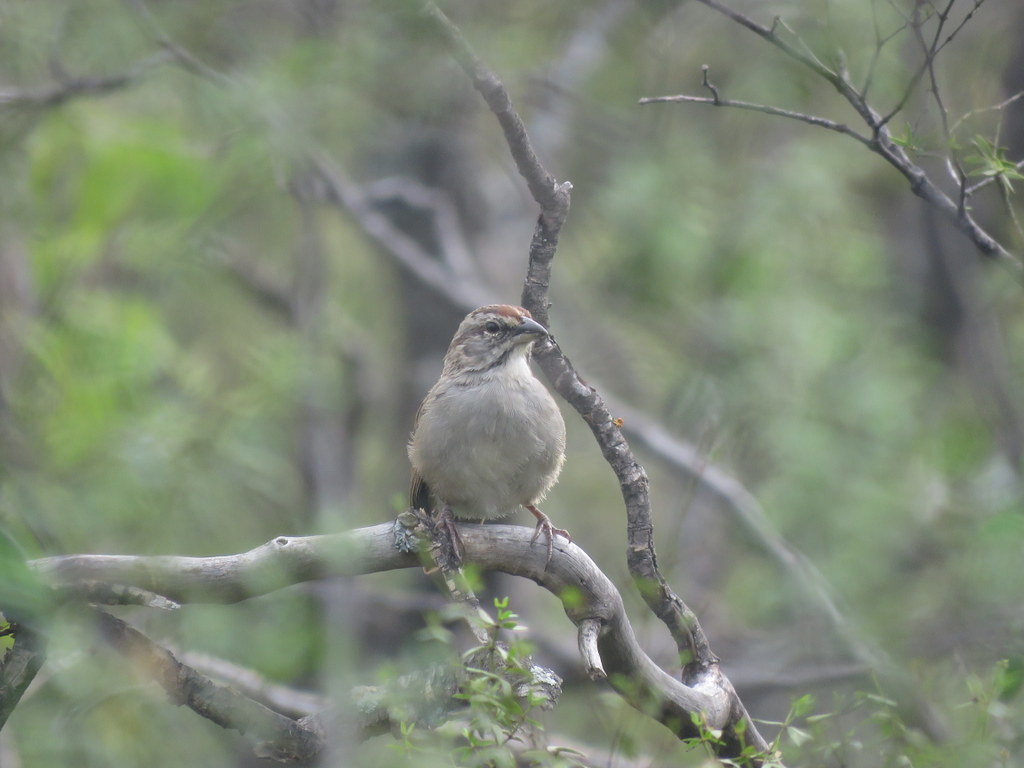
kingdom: Animalia
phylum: Chordata
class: Aves
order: Passeriformes
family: Passerellidae
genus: Rhynchospiza
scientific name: Rhynchospiza strigiceps
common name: Stripe-capped sparrow
